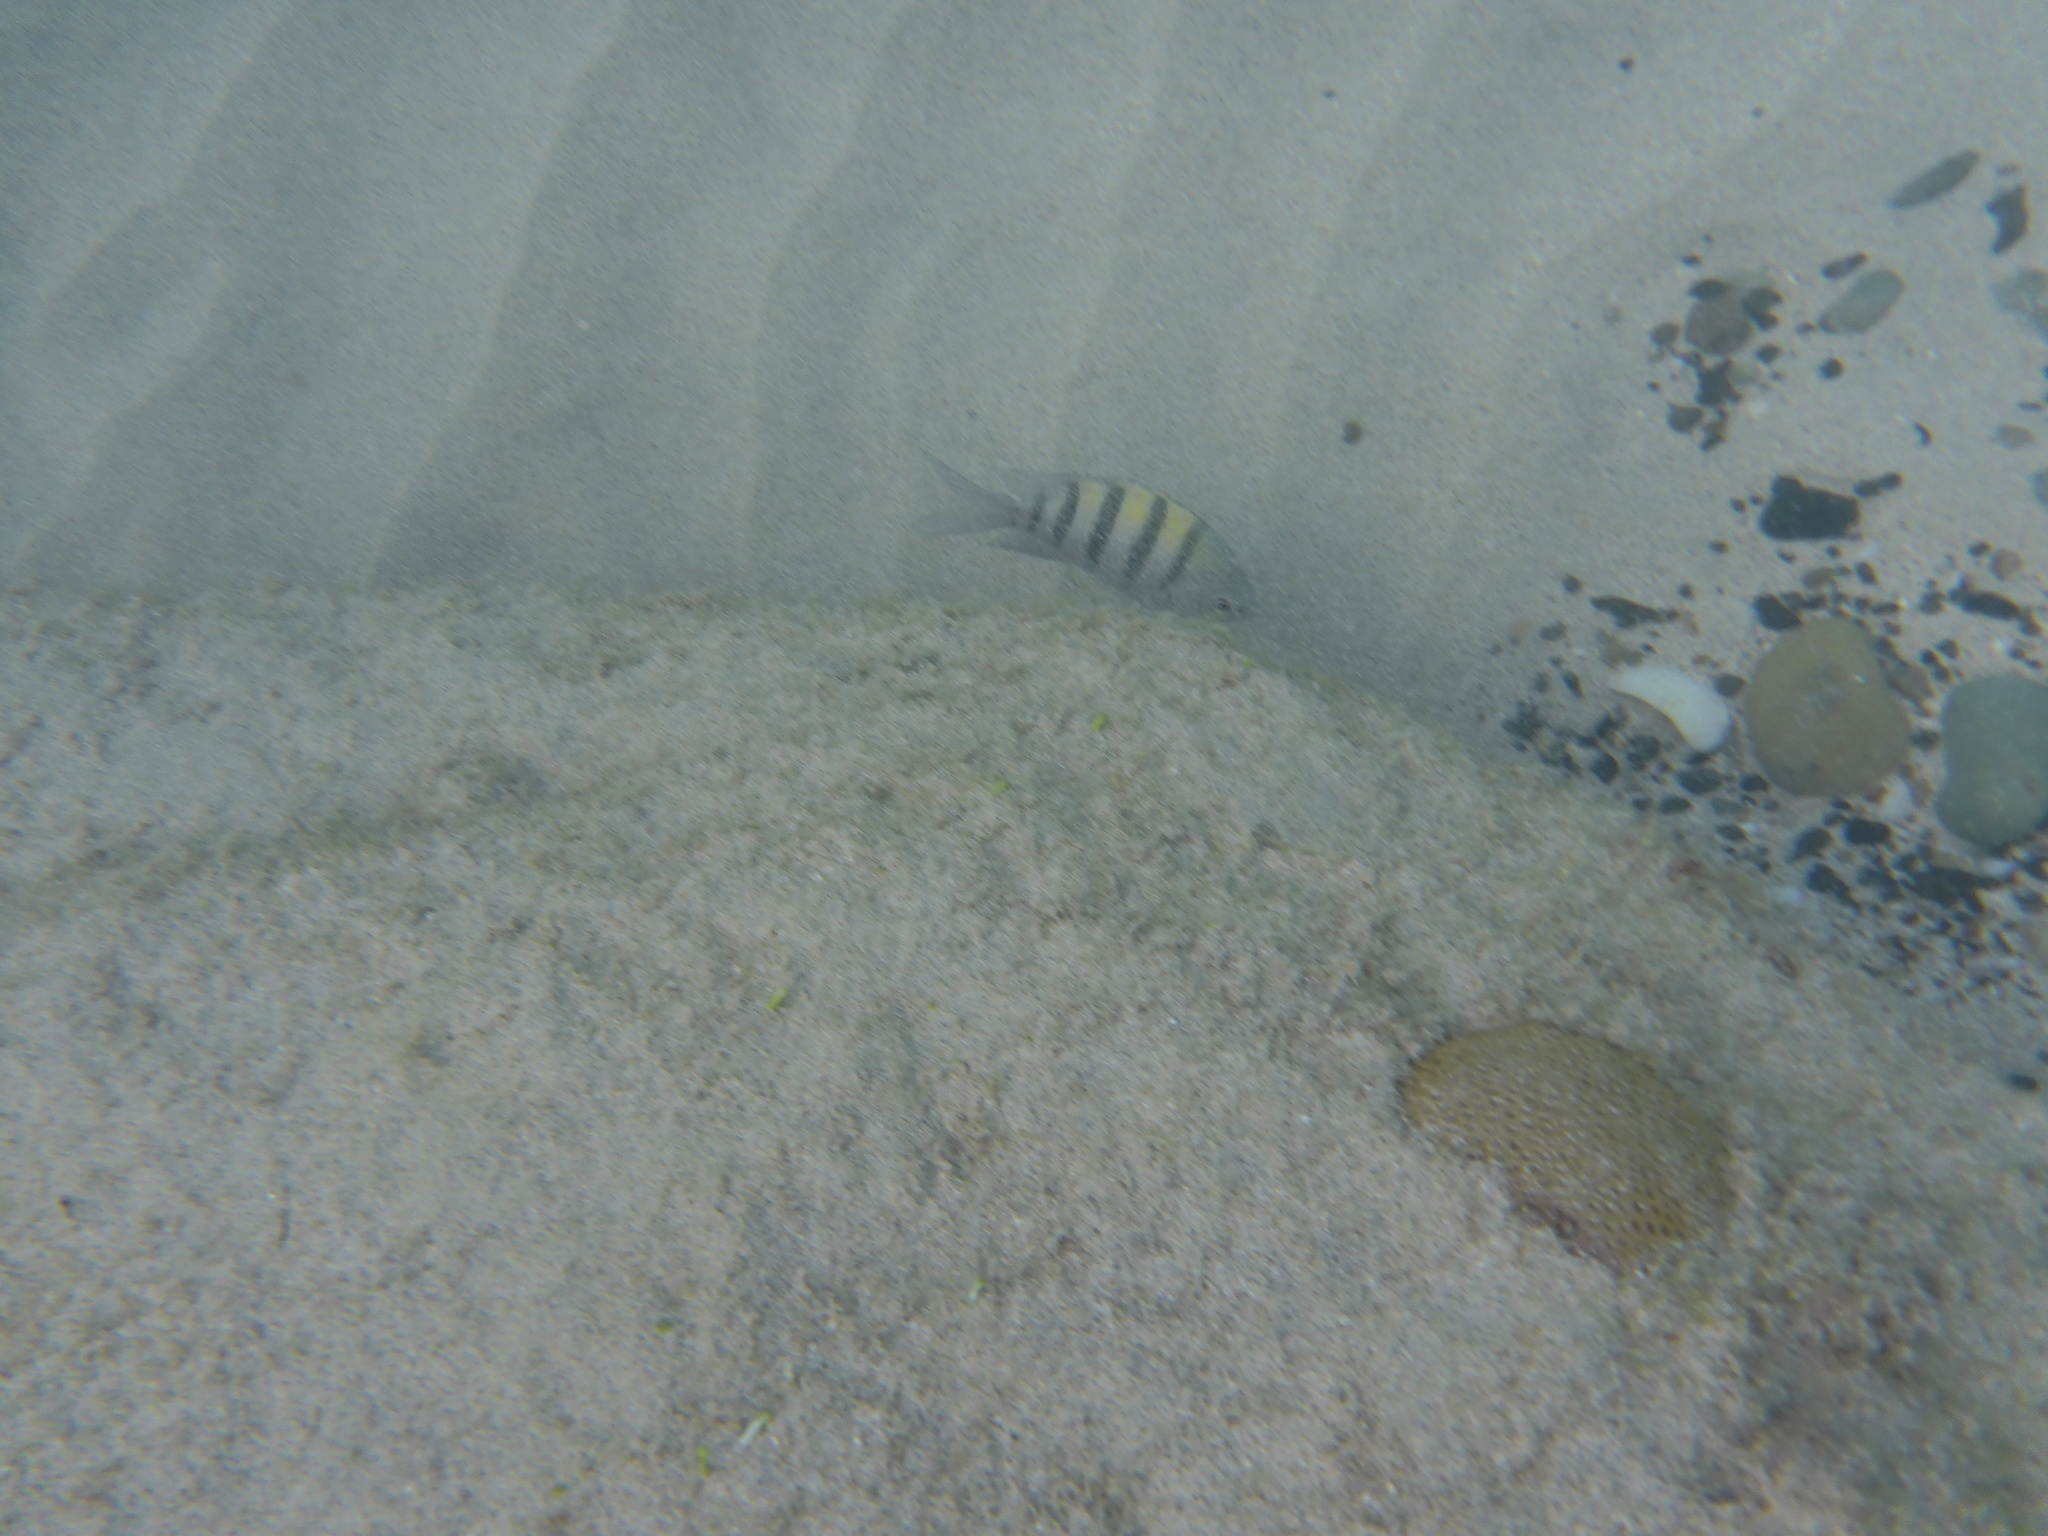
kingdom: Animalia
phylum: Chordata
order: Perciformes
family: Pomacentridae
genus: Abudefduf
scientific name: Abudefduf saxatilis
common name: Sergeant major
